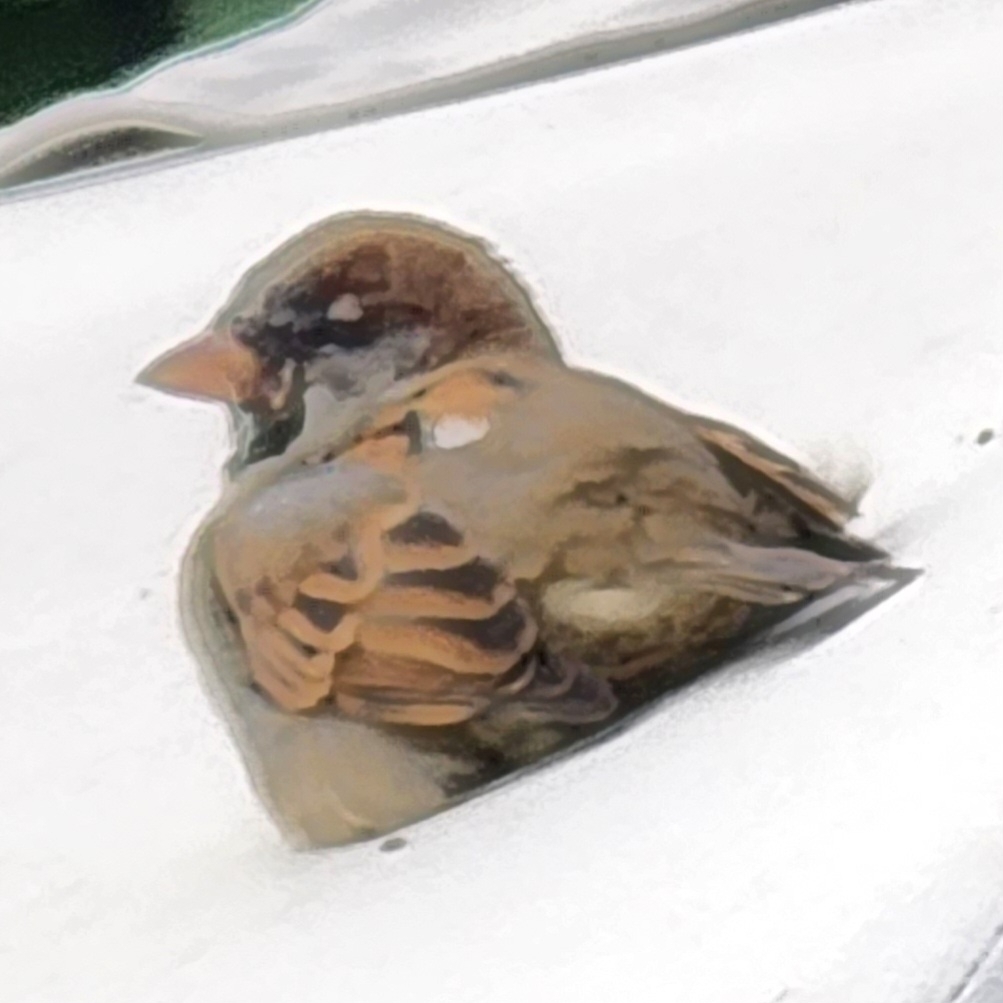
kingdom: Animalia
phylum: Chordata
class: Aves
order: Passeriformes
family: Passeridae
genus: Passer
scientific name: Passer domesticus
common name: House sparrow
